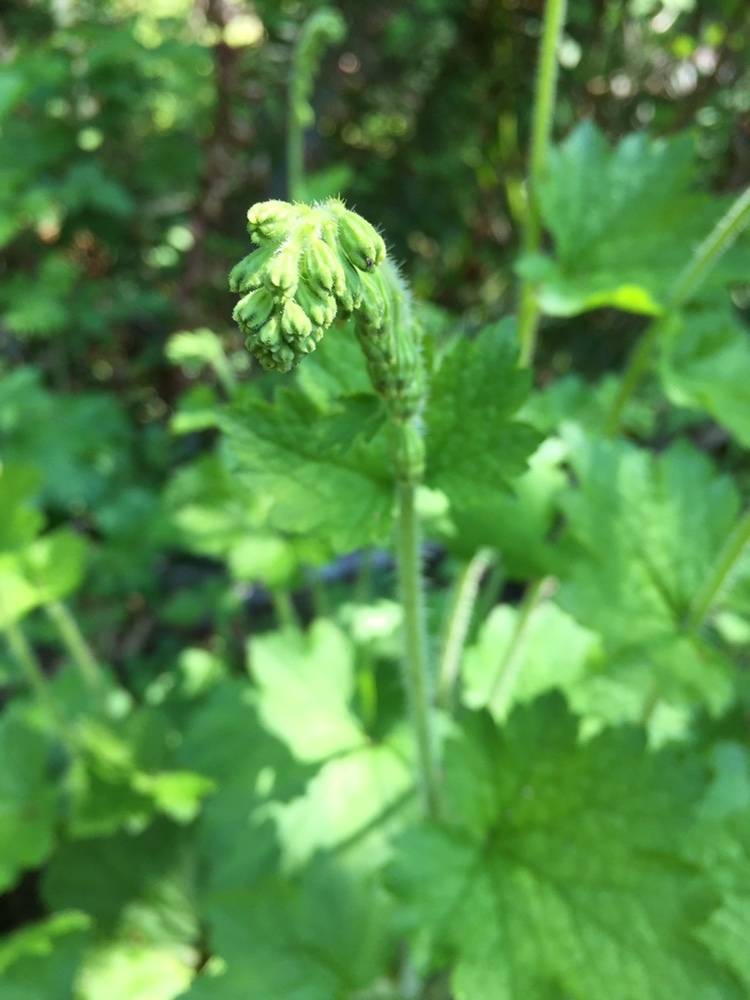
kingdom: Plantae
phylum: Tracheophyta
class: Magnoliopsida
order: Saxifragales
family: Saxifragaceae
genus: Tellima
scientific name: Tellima grandiflora
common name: Fringecups
